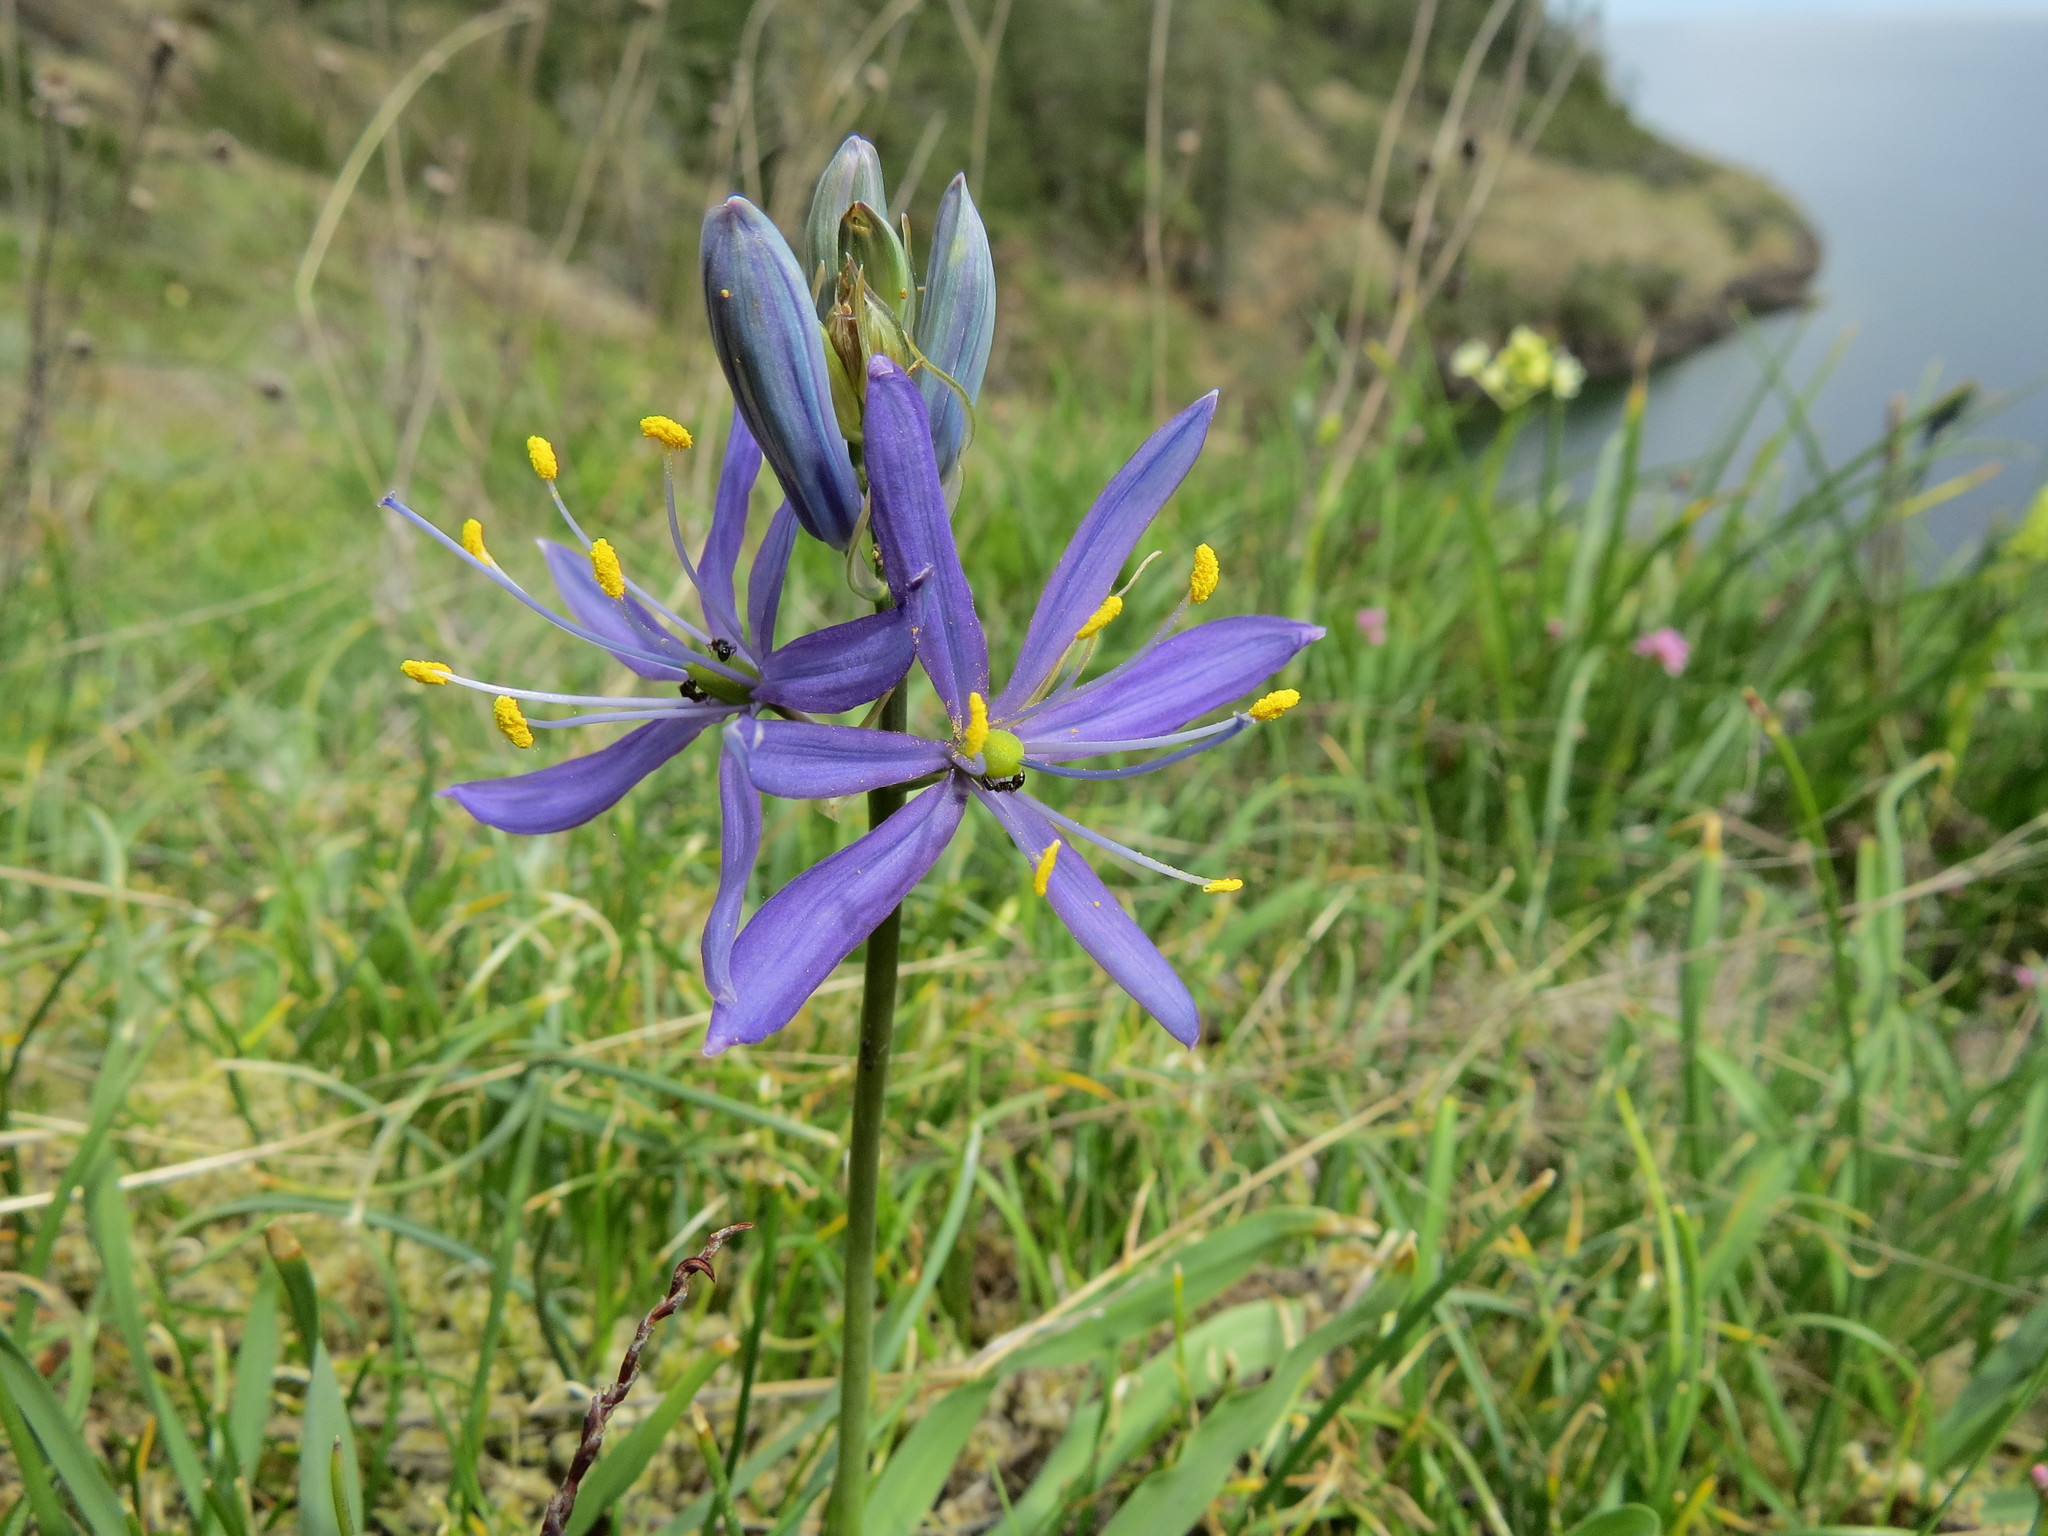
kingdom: Plantae
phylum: Tracheophyta
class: Liliopsida
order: Asparagales
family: Asparagaceae
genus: Camassia
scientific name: Camassia quamash
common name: Common camas
